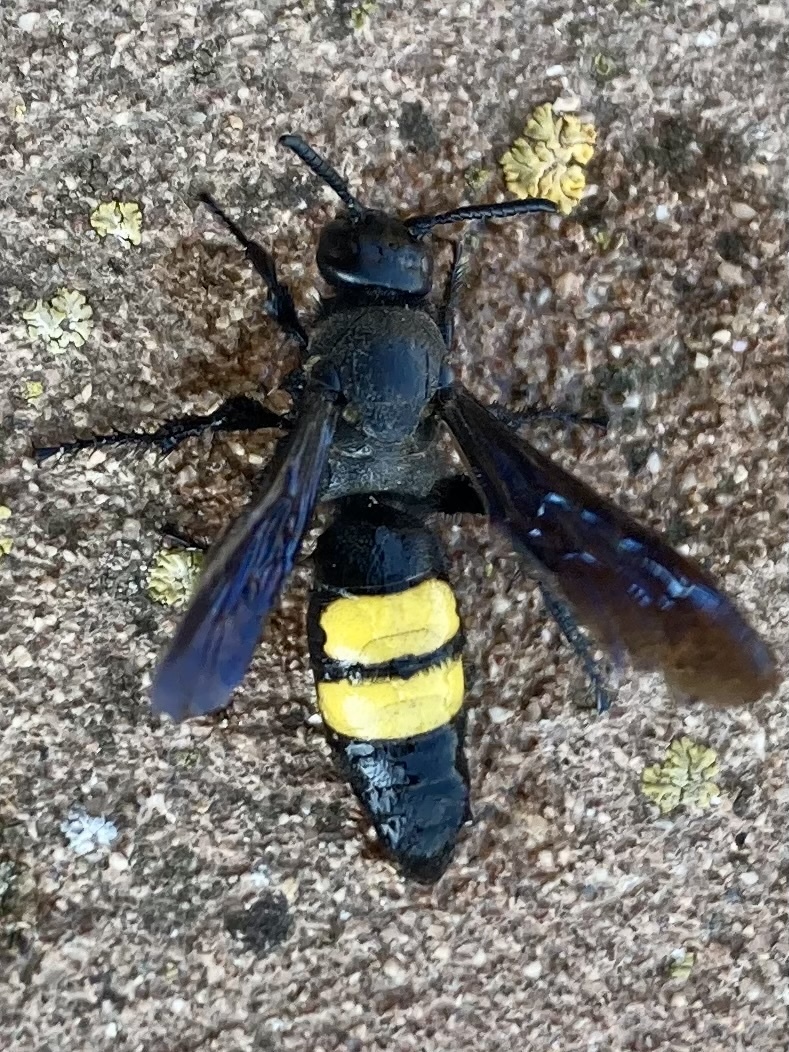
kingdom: Animalia
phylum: Arthropoda
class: Insecta
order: Hymenoptera
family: Scoliidae
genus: Scolia
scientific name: Scolia hirta
